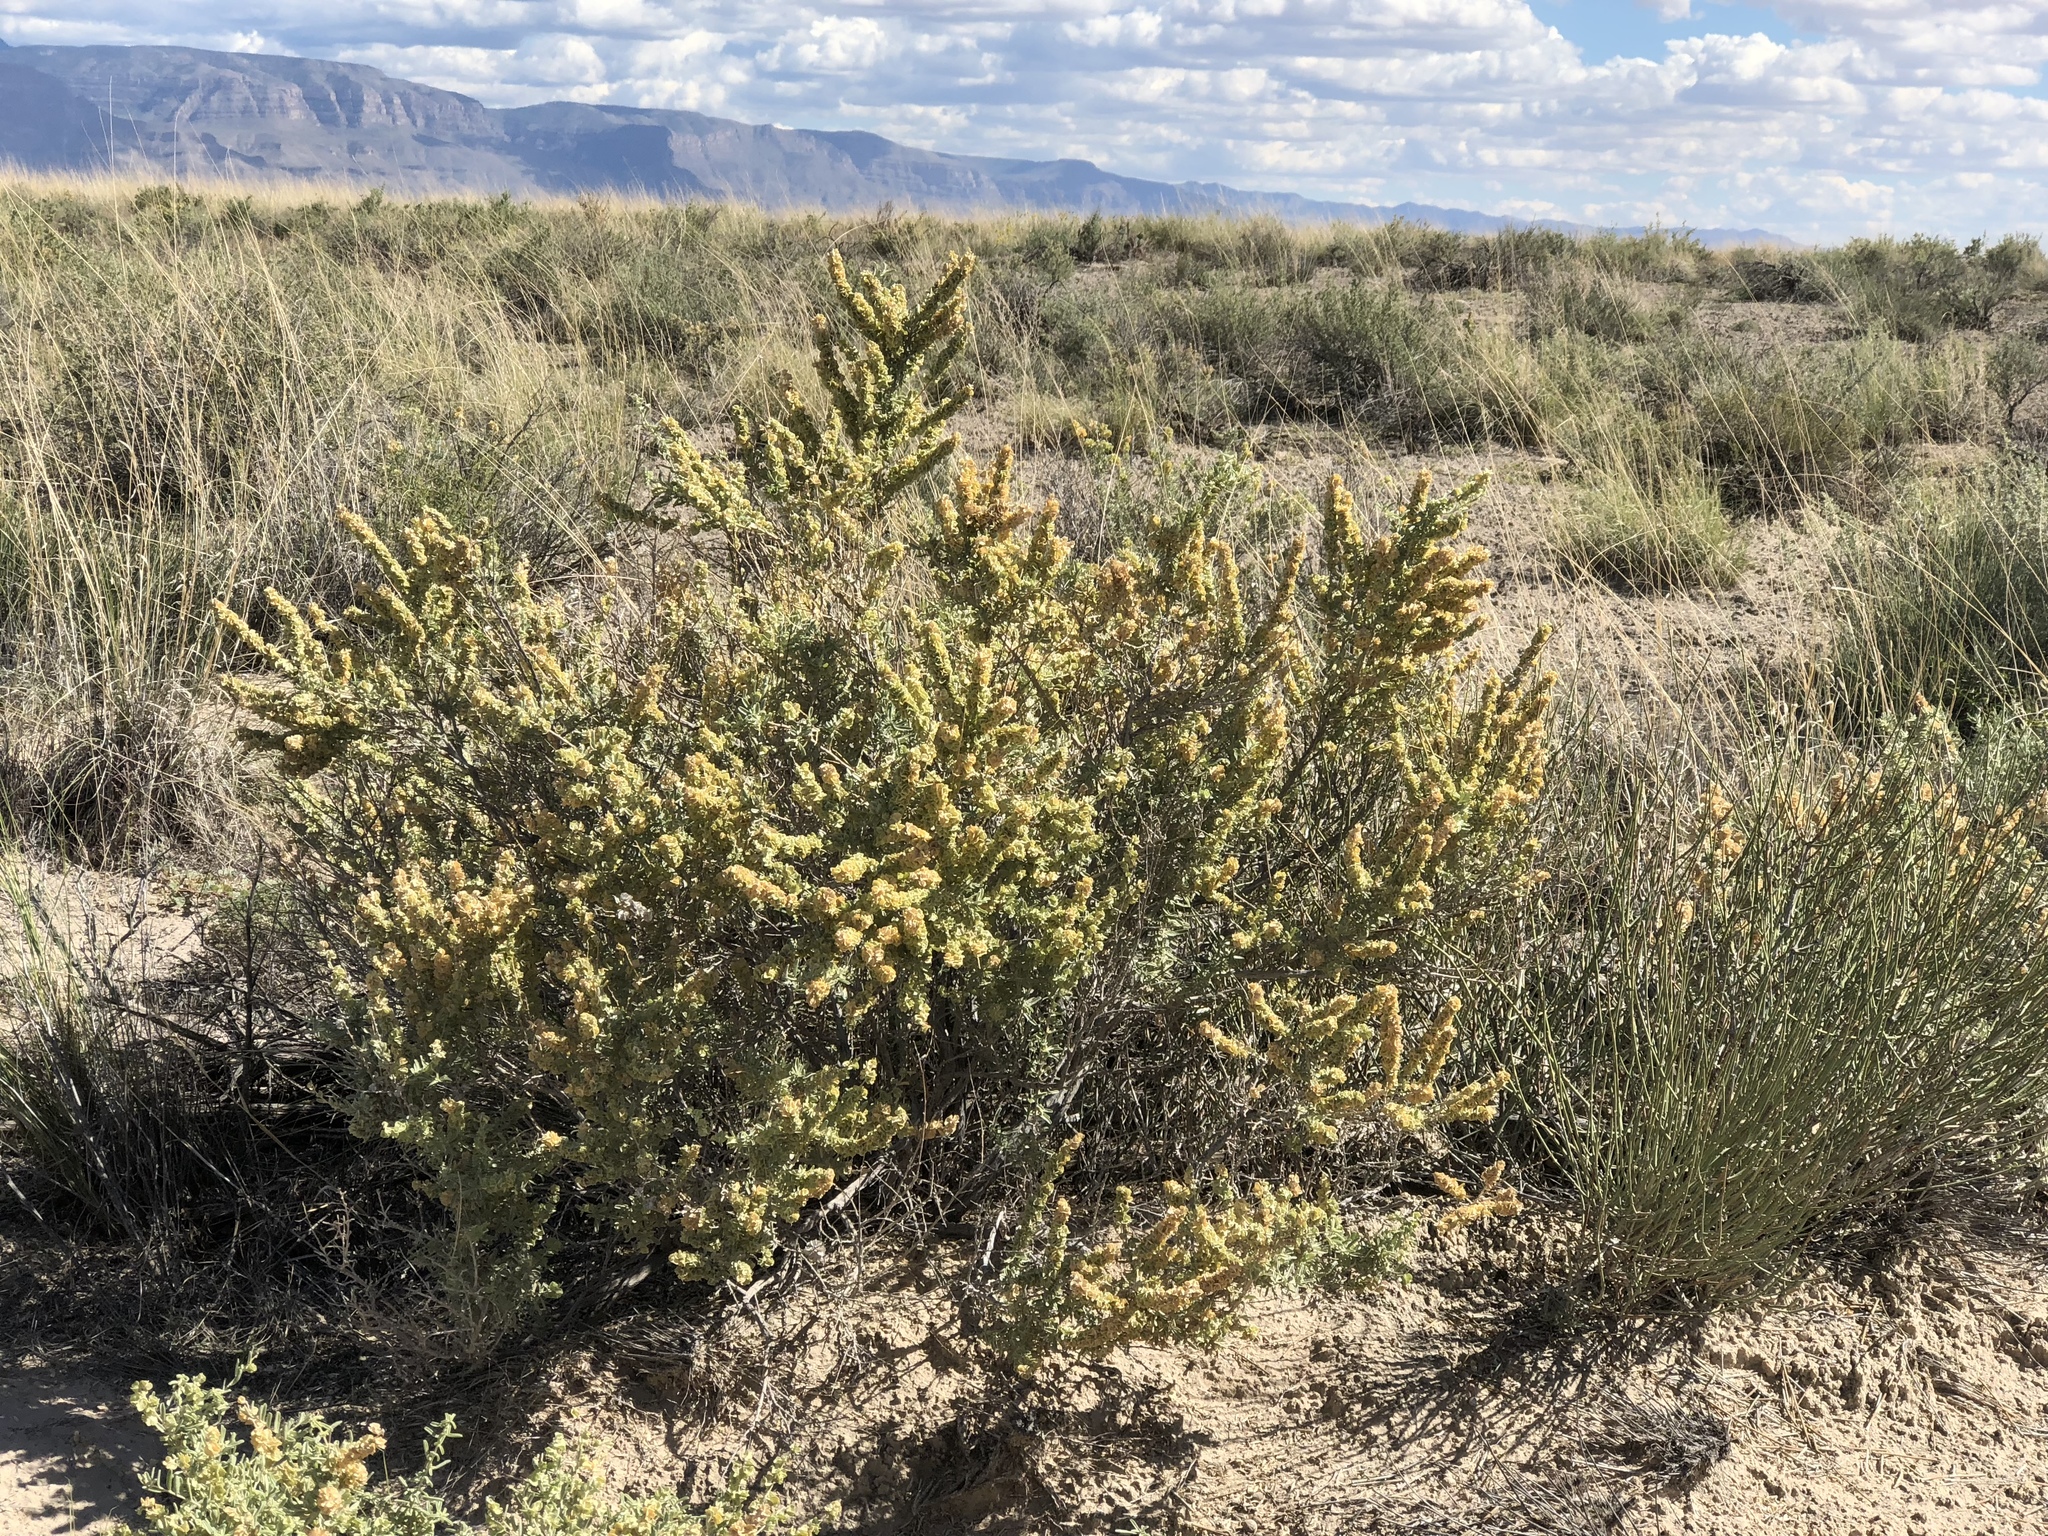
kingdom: Plantae
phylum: Tracheophyta
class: Magnoliopsida
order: Caryophyllales
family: Amaranthaceae
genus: Atriplex
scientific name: Atriplex canescens
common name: Four-wing saltbush
